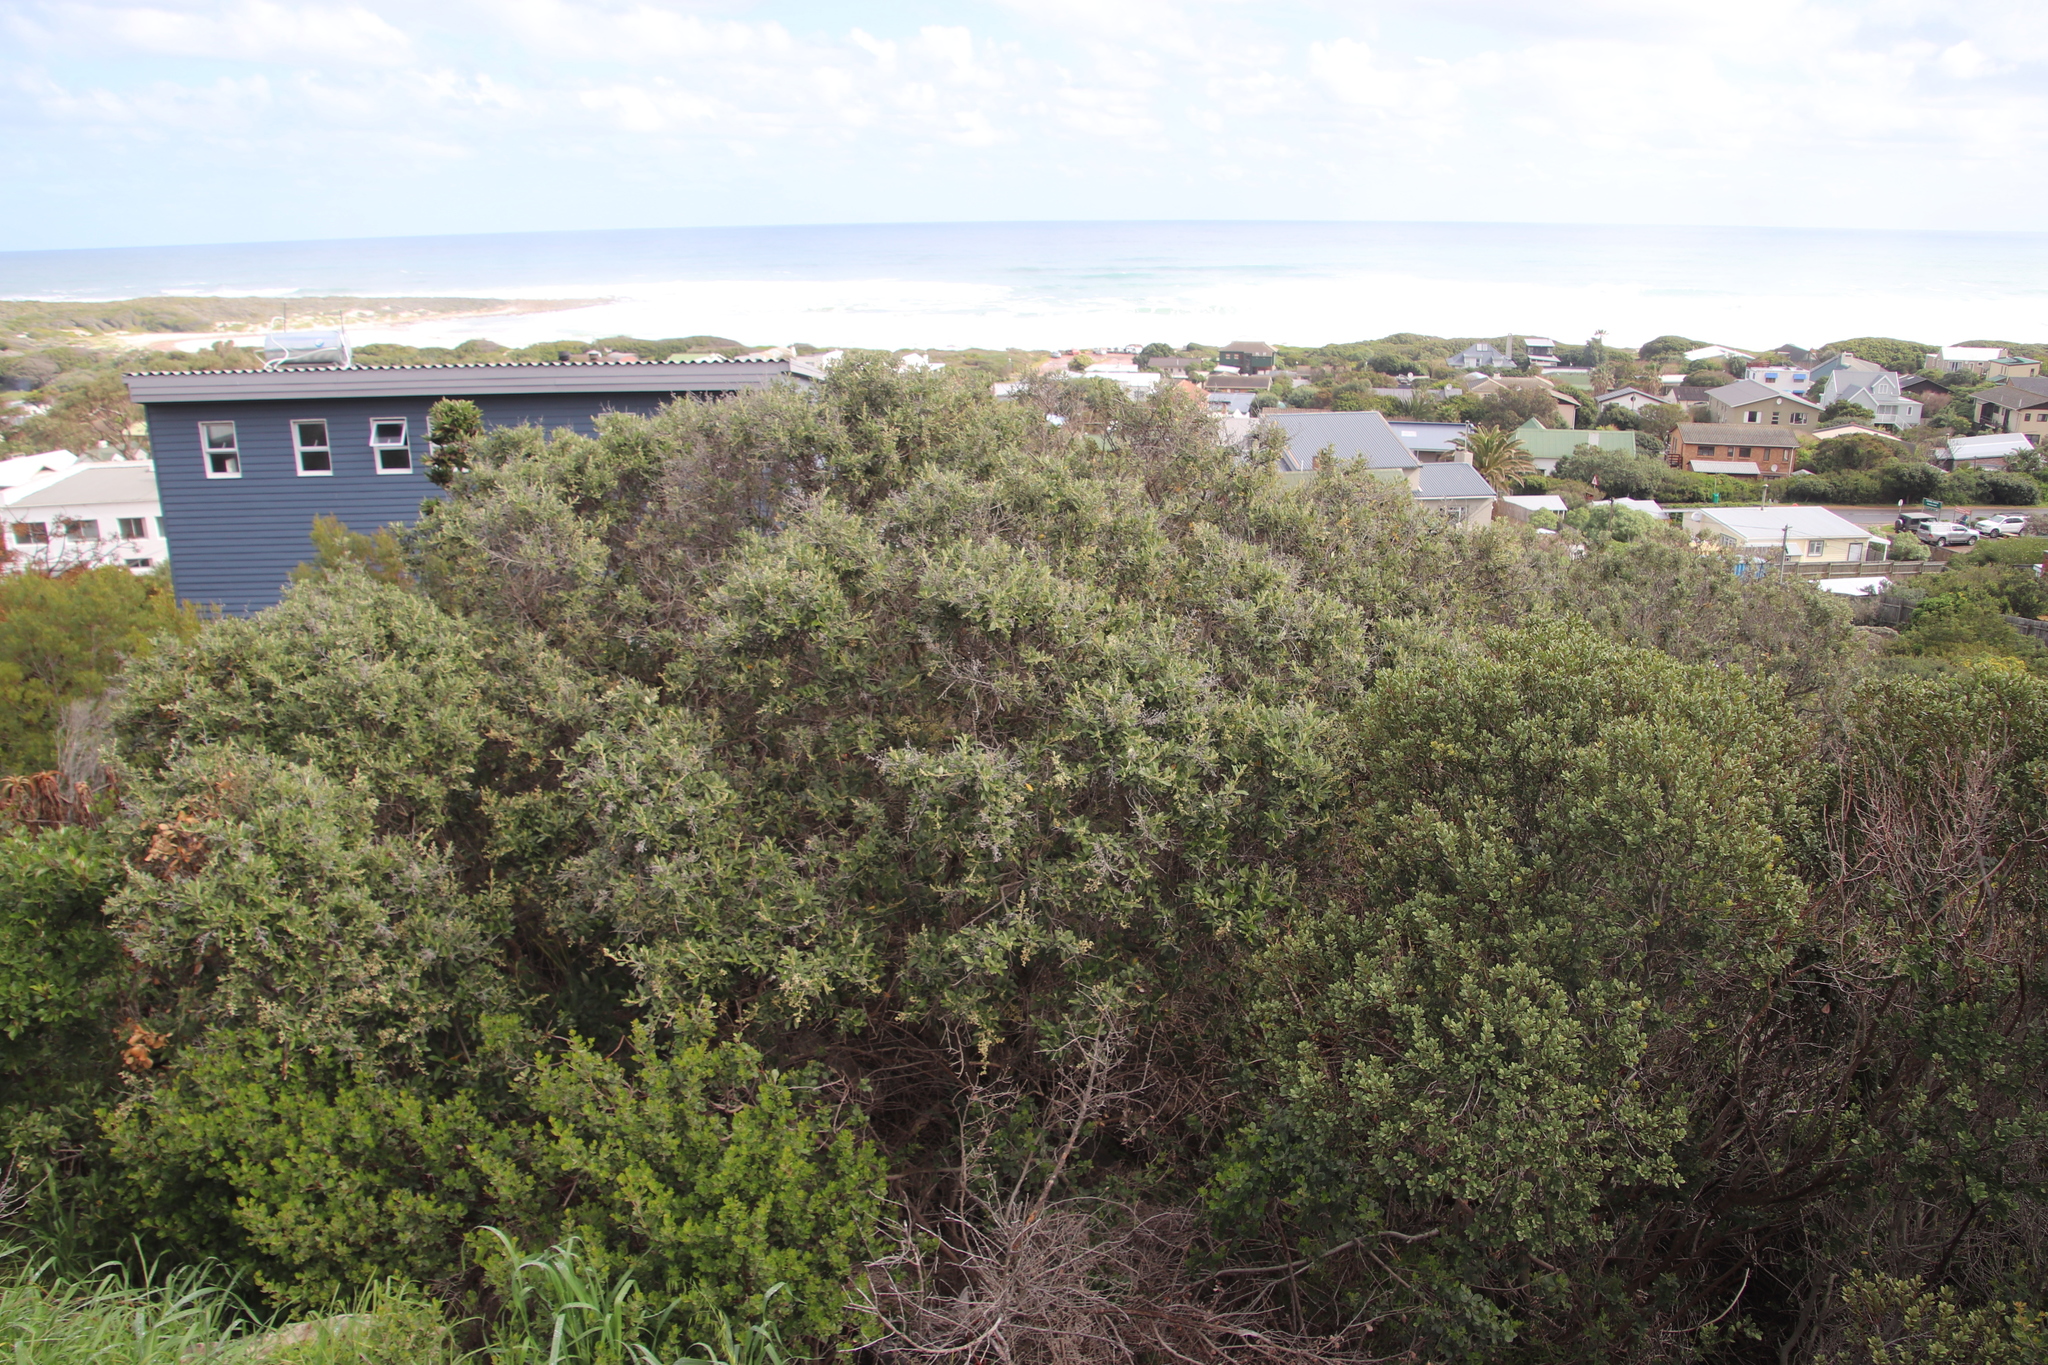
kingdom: Plantae
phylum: Tracheophyta
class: Magnoliopsida
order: Asterales
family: Asteraceae
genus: Tarchonanthus
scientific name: Tarchonanthus littoralis
